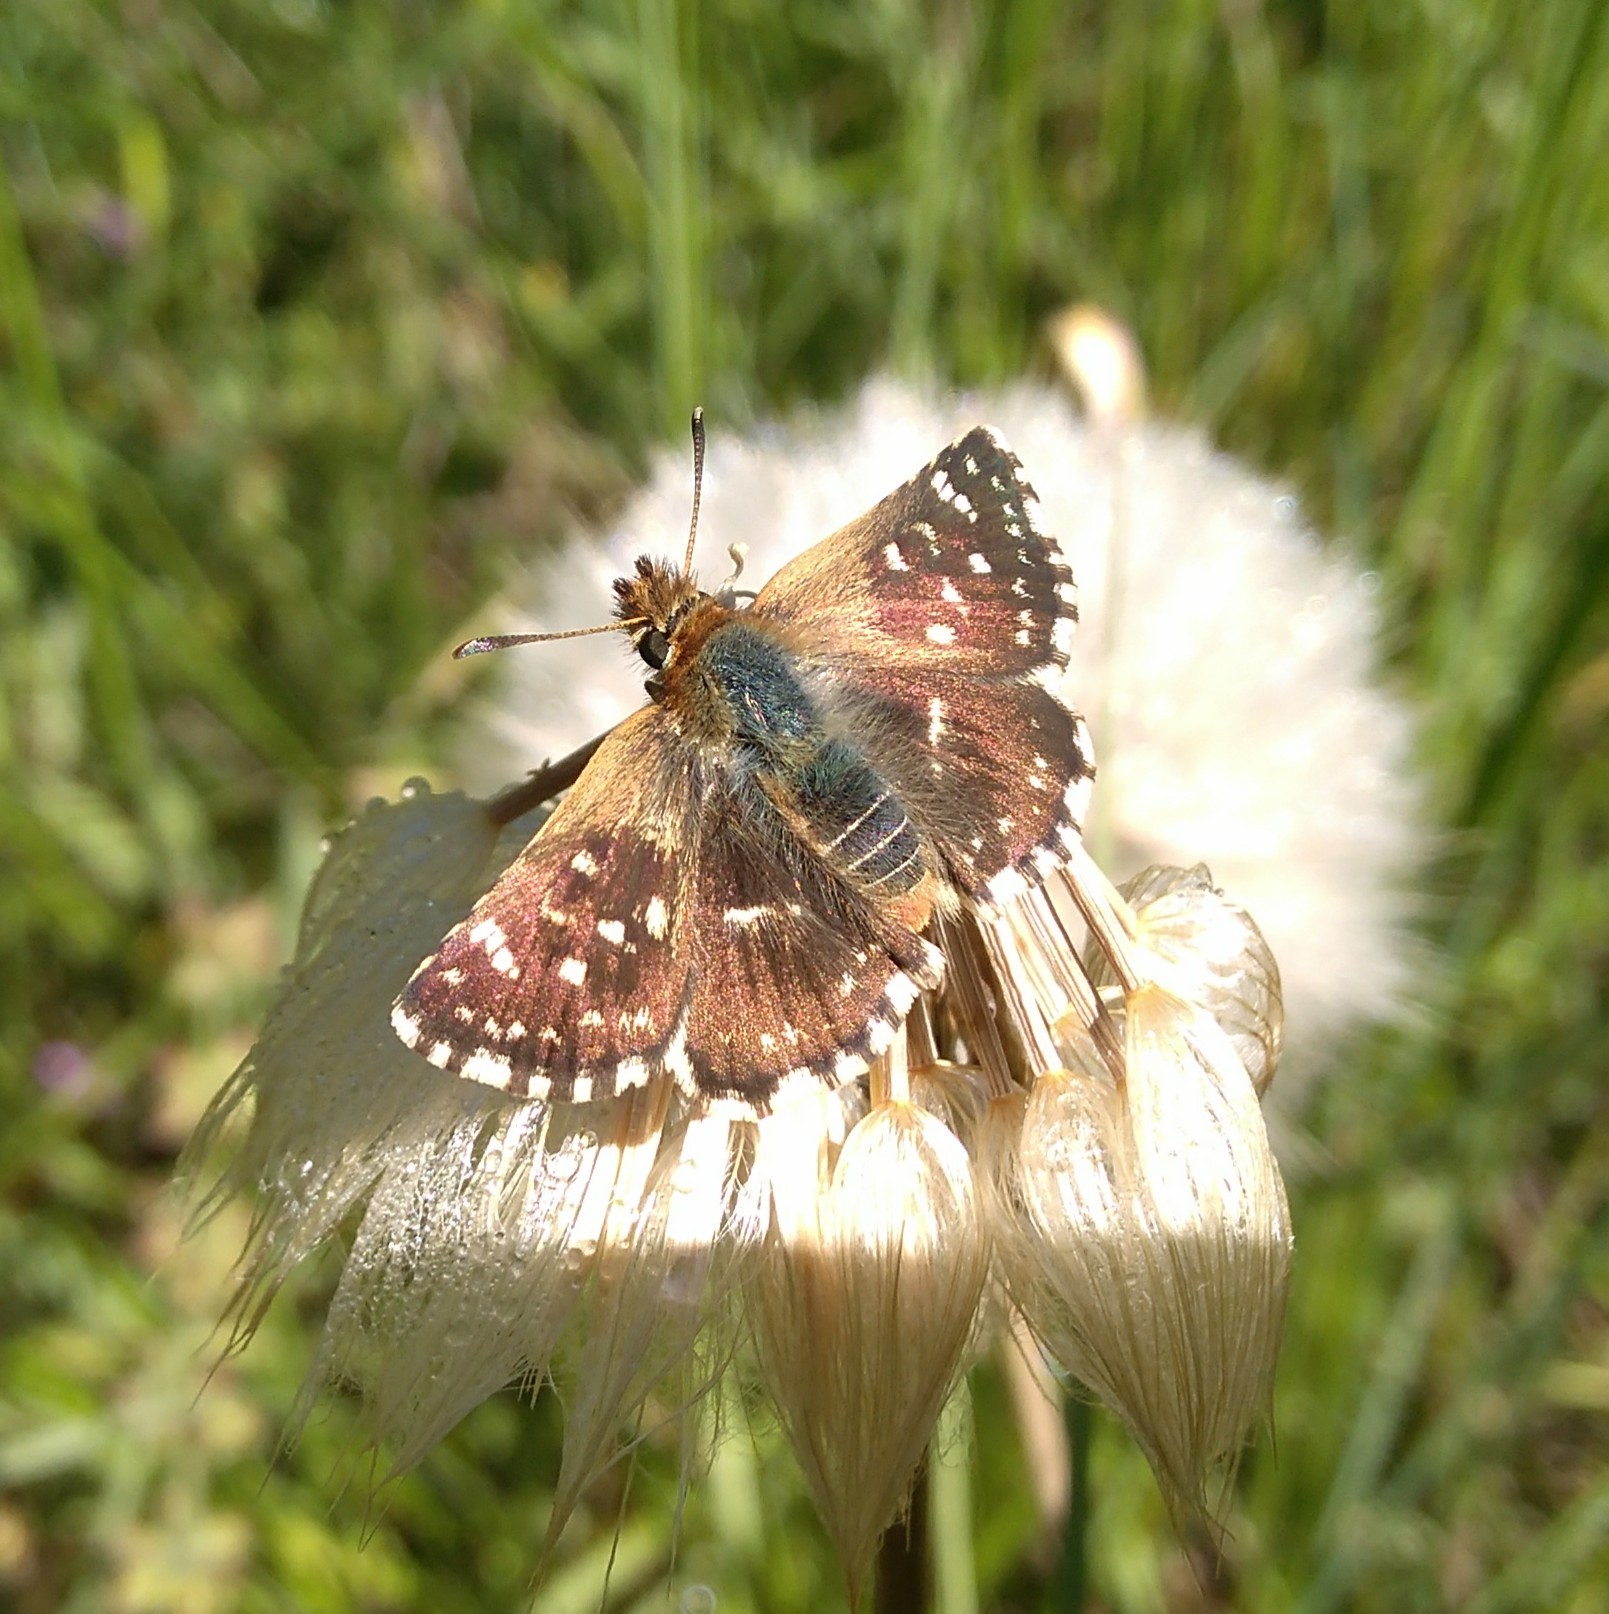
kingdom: Animalia
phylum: Arthropoda
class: Insecta
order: Lepidoptera
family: Hesperiidae
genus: Spialia
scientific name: Spialia sertorius
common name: Red underwing skipper
